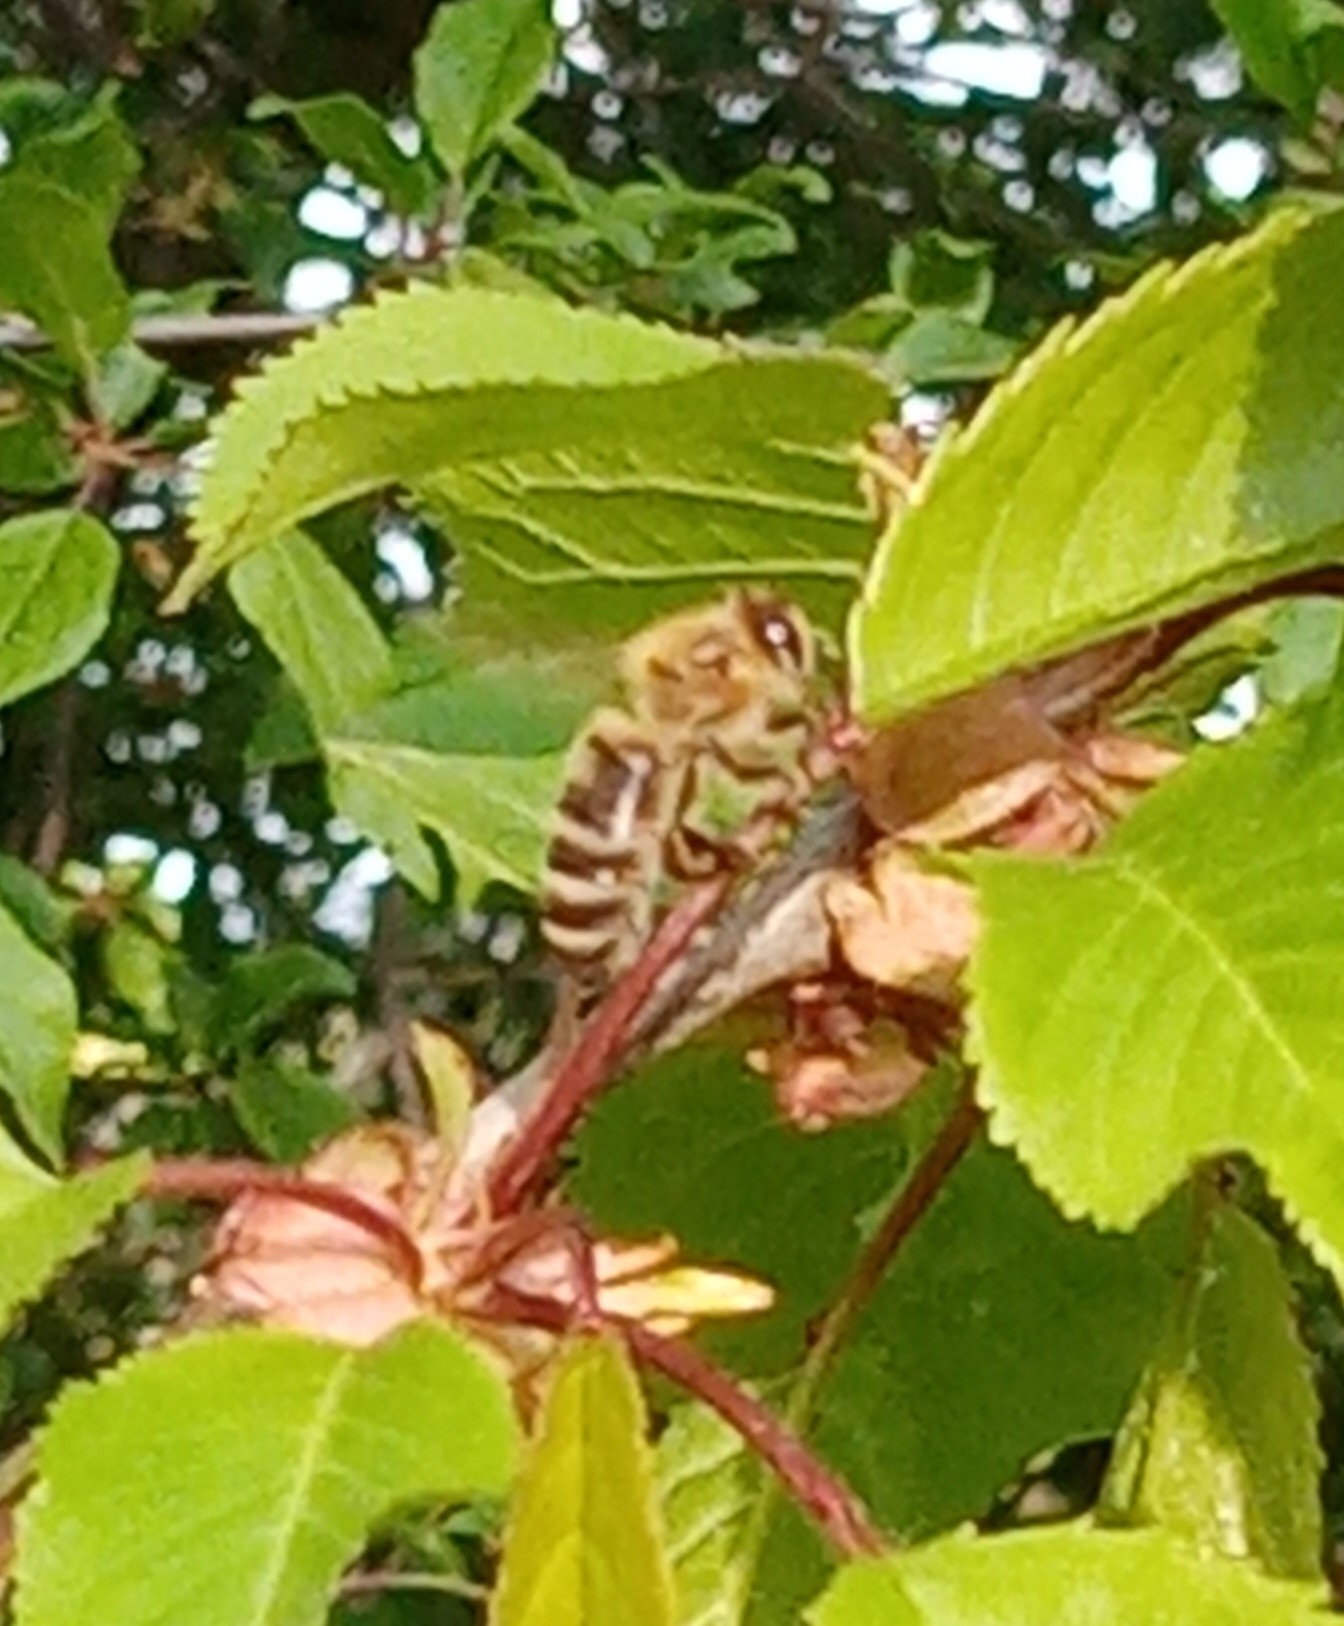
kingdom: Animalia
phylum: Arthropoda
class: Insecta
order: Hymenoptera
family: Apidae
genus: Apis
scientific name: Apis mellifera
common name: Honey bee
